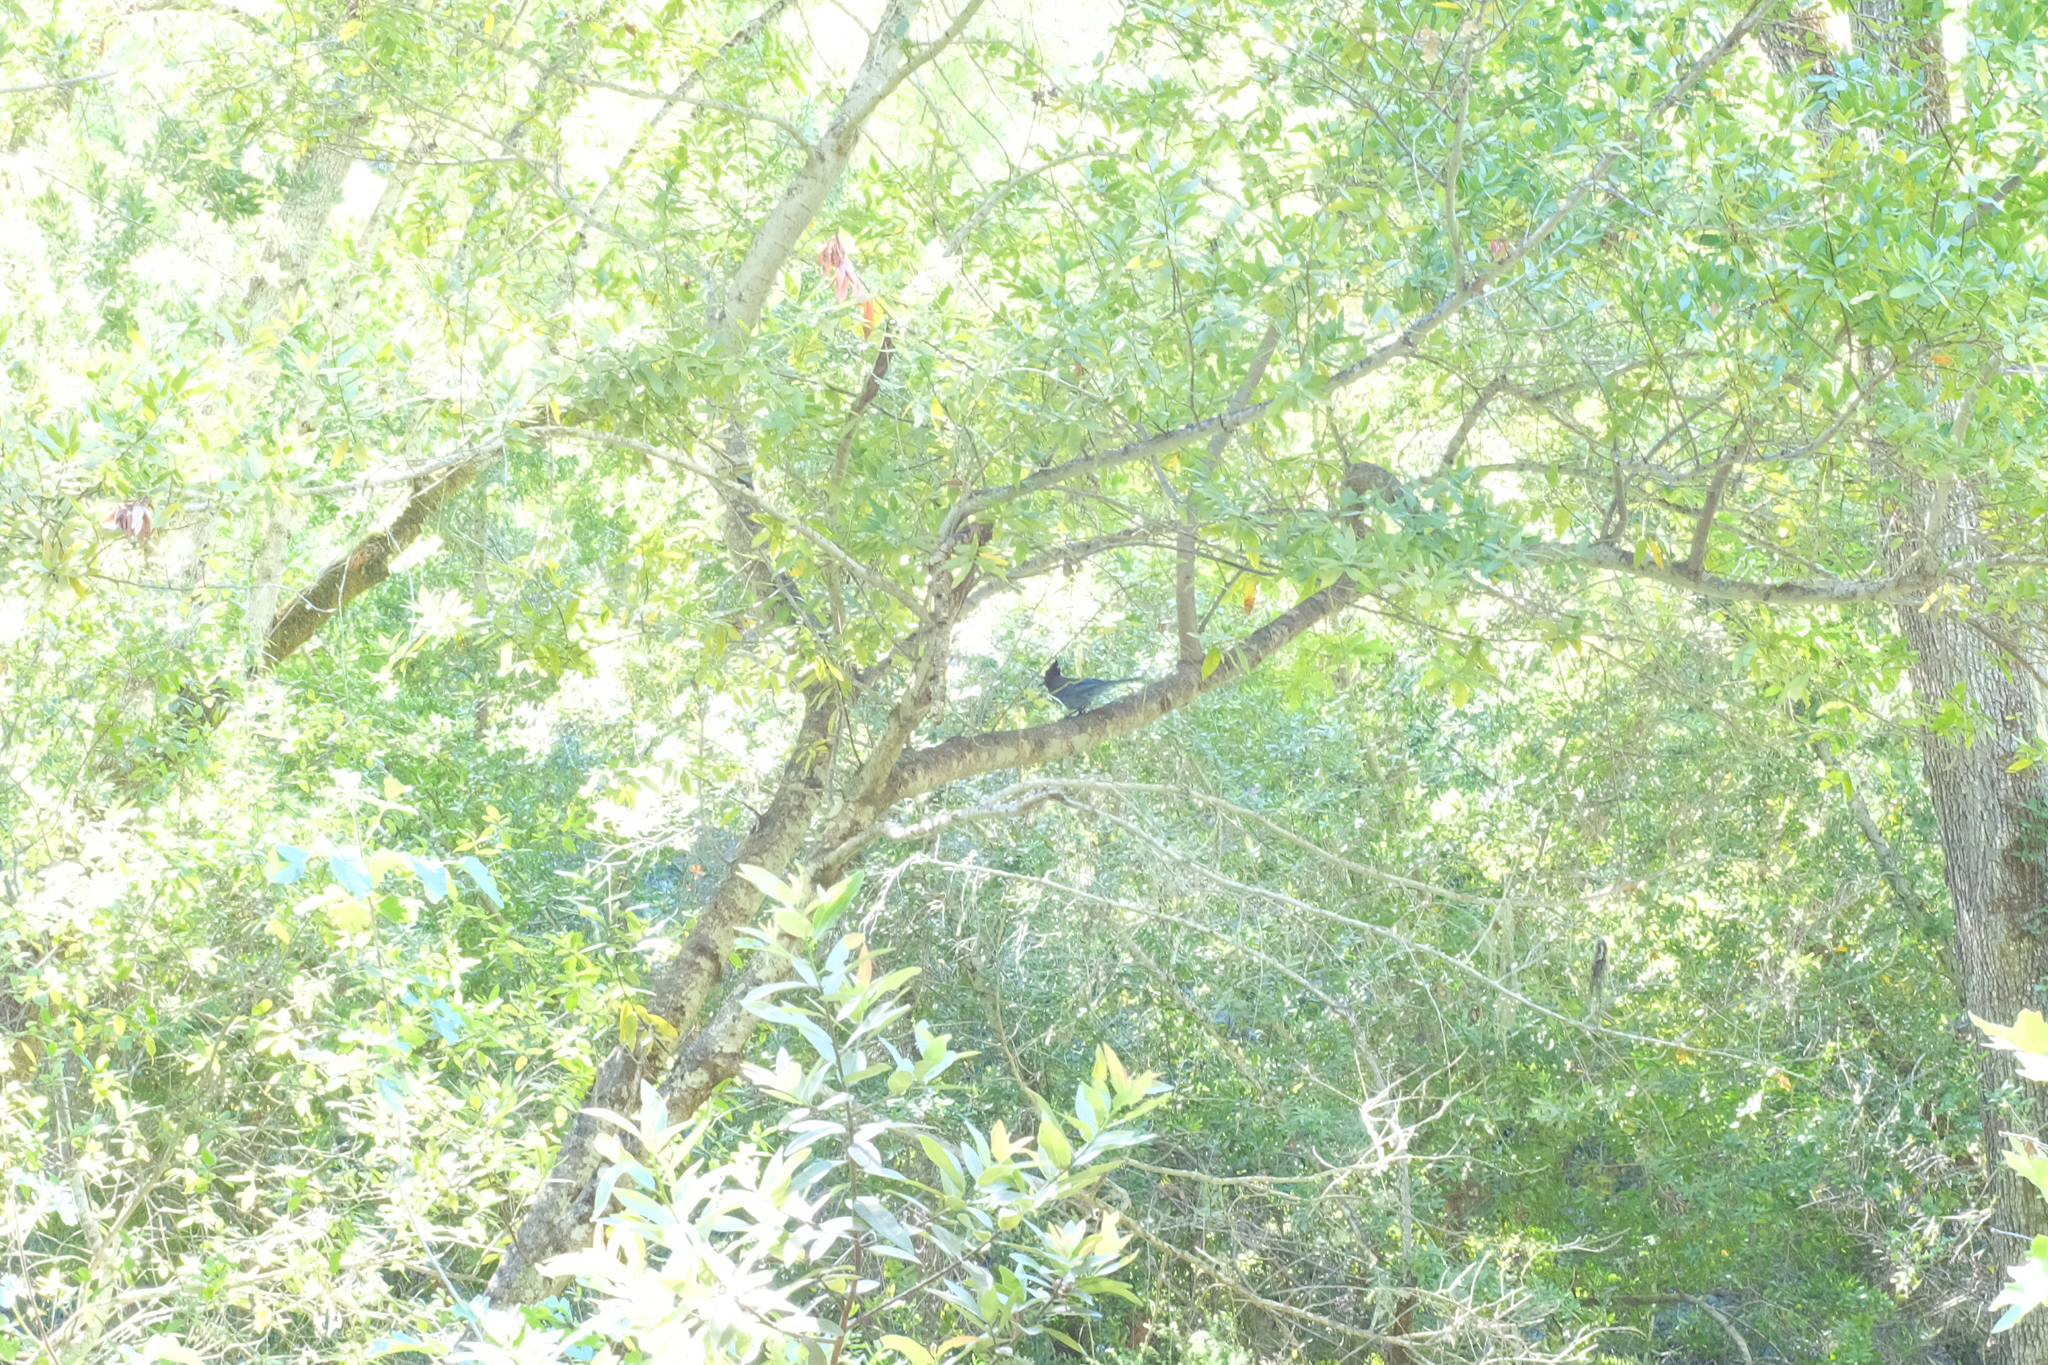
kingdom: Animalia
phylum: Chordata
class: Aves
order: Passeriformes
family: Corvidae
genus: Cyanocitta
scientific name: Cyanocitta stelleri
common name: Steller's jay
